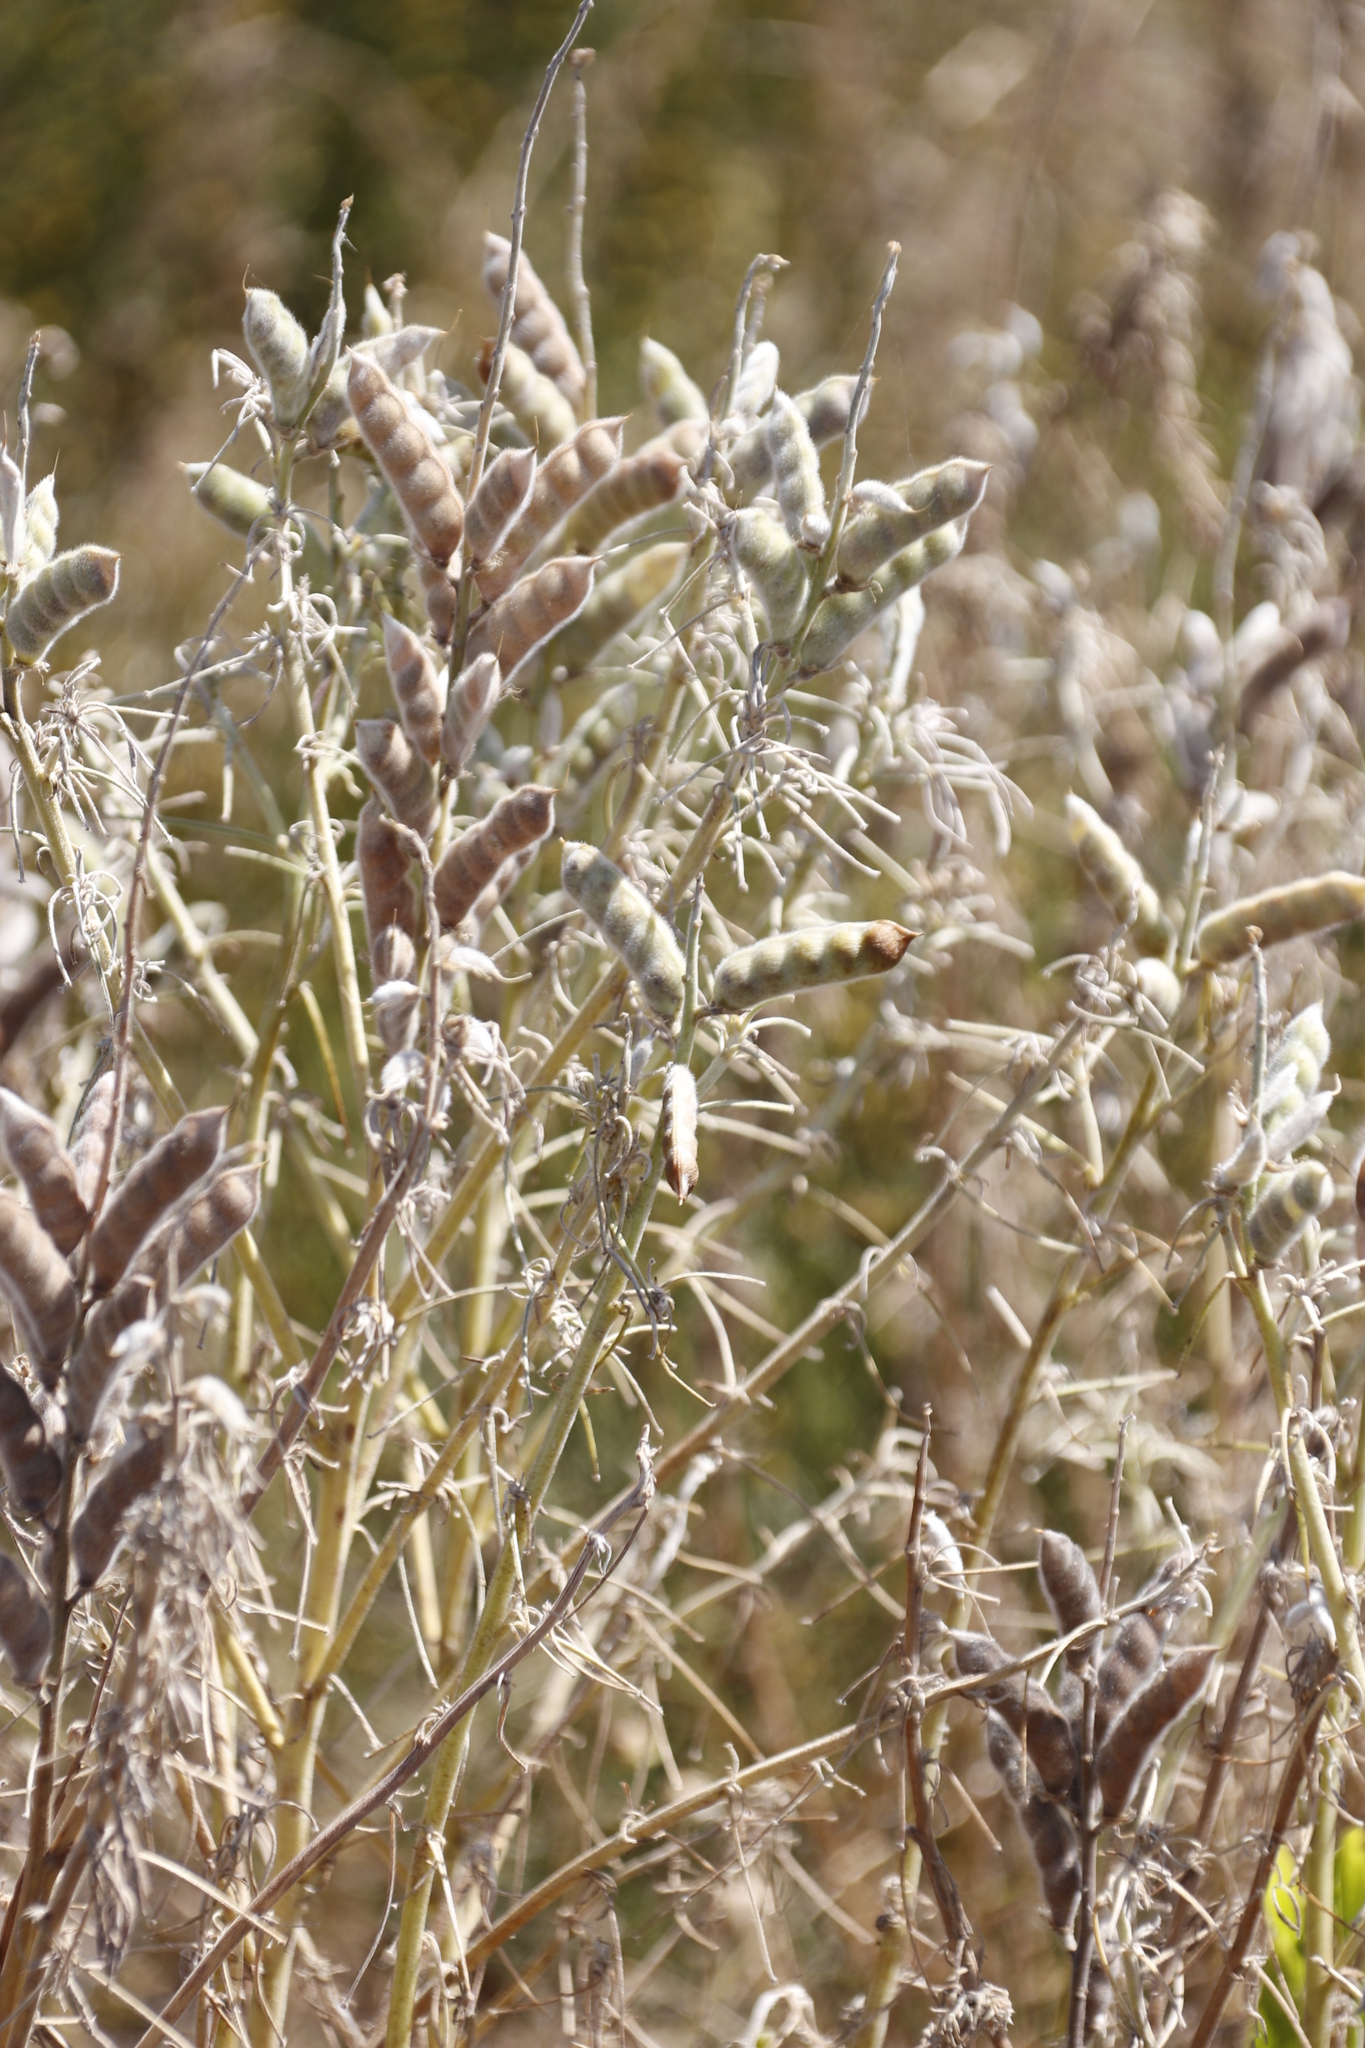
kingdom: Plantae
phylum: Tracheophyta
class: Magnoliopsida
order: Fabales
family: Fabaceae
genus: Lupinus
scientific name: Lupinus angustifolius
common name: Narrow-leaved lupin
